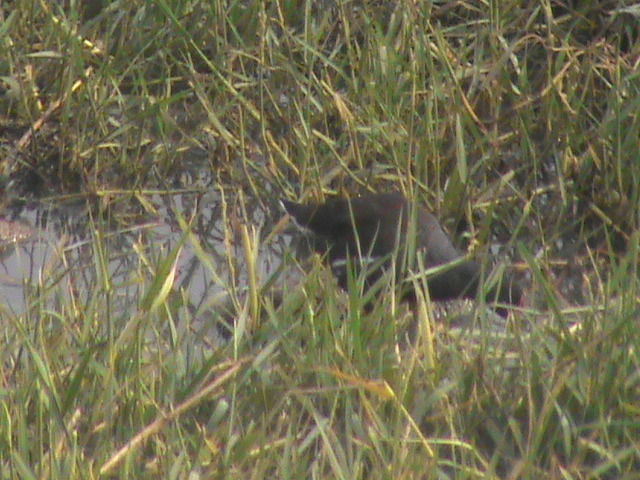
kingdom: Animalia
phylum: Chordata
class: Aves
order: Gruiformes
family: Rallidae
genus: Gallinula
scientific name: Gallinula chloropus
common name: Common moorhen
